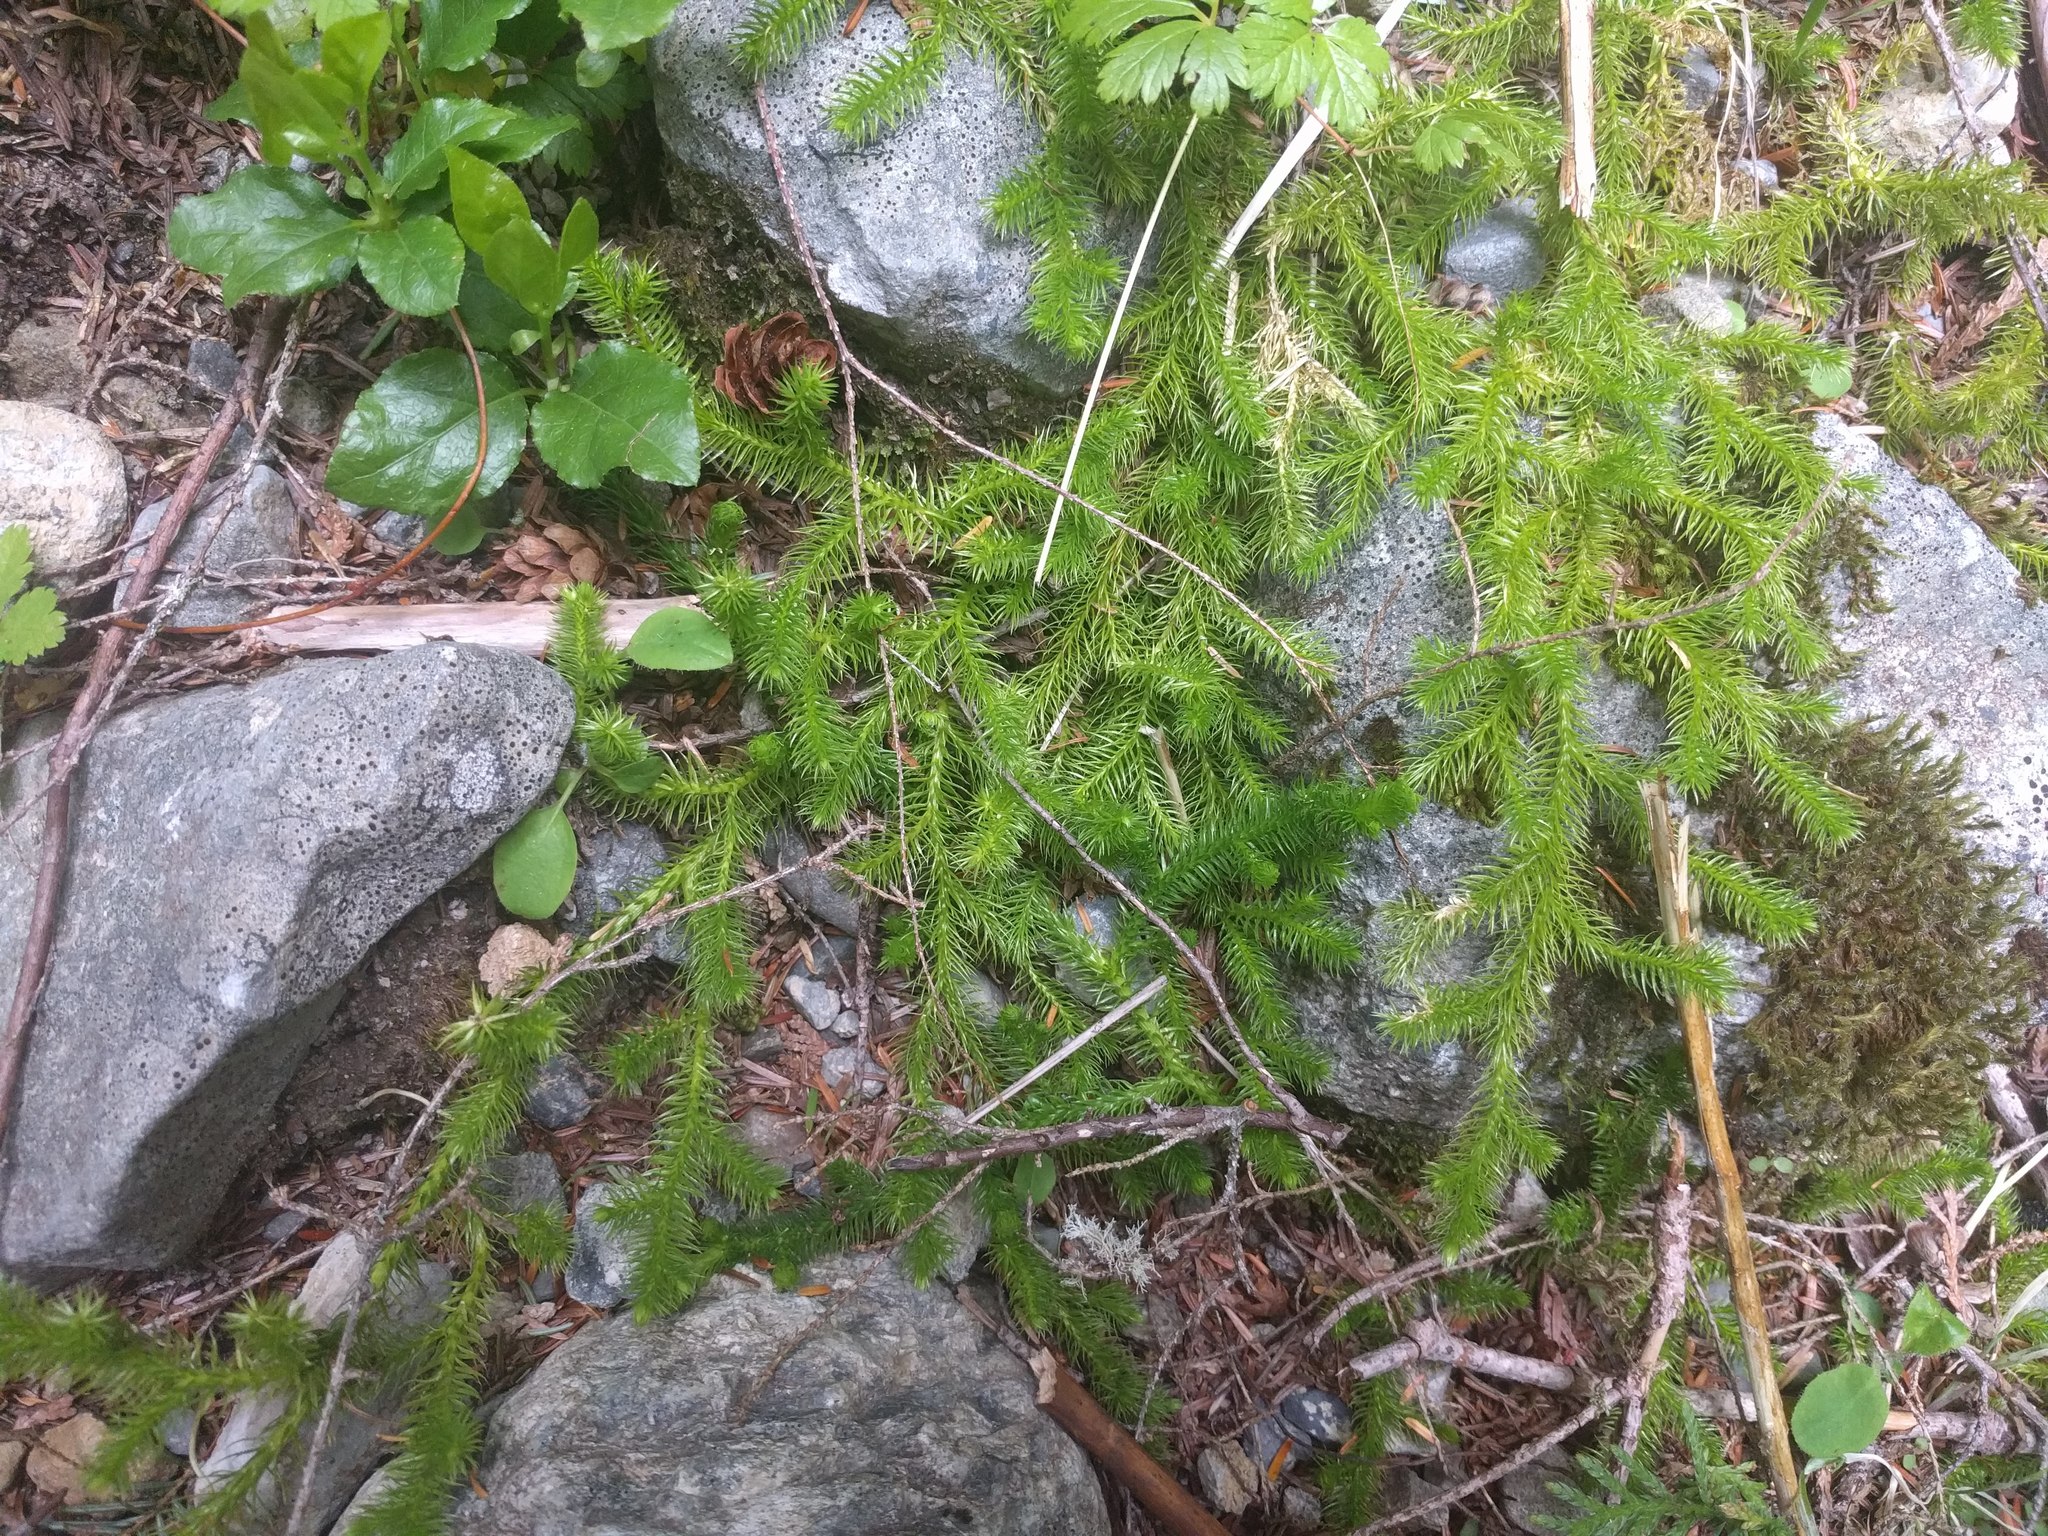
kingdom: Plantae
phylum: Tracheophyta
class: Lycopodiopsida
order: Lycopodiales
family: Lycopodiaceae
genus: Lycopodium
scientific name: Lycopodium clavatum
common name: Stag's-horn clubmoss
